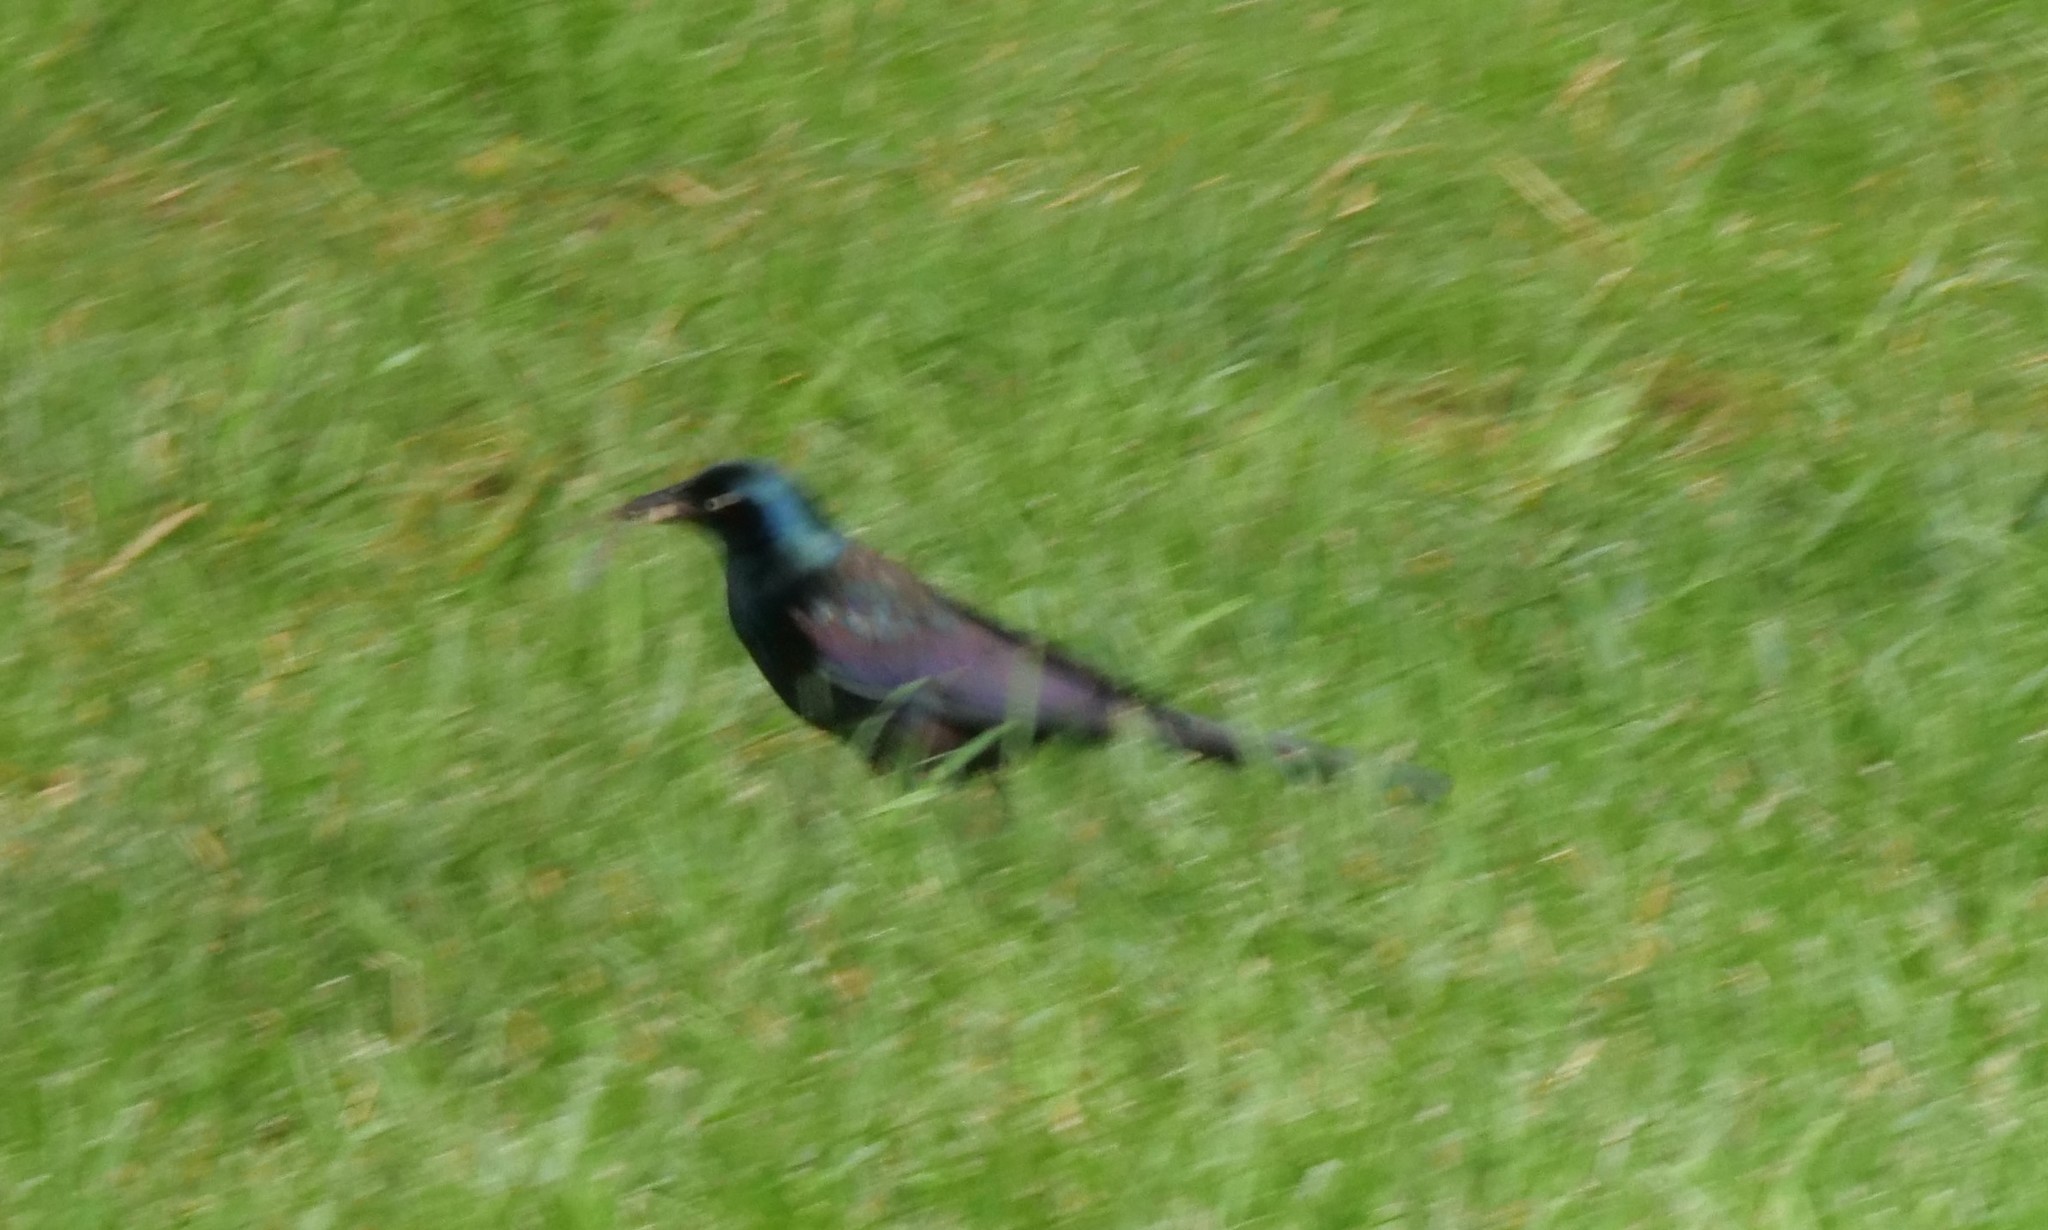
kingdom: Animalia
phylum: Chordata
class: Aves
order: Passeriformes
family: Icteridae
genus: Quiscalus
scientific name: Quiscalus quiscula
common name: Common grackle
